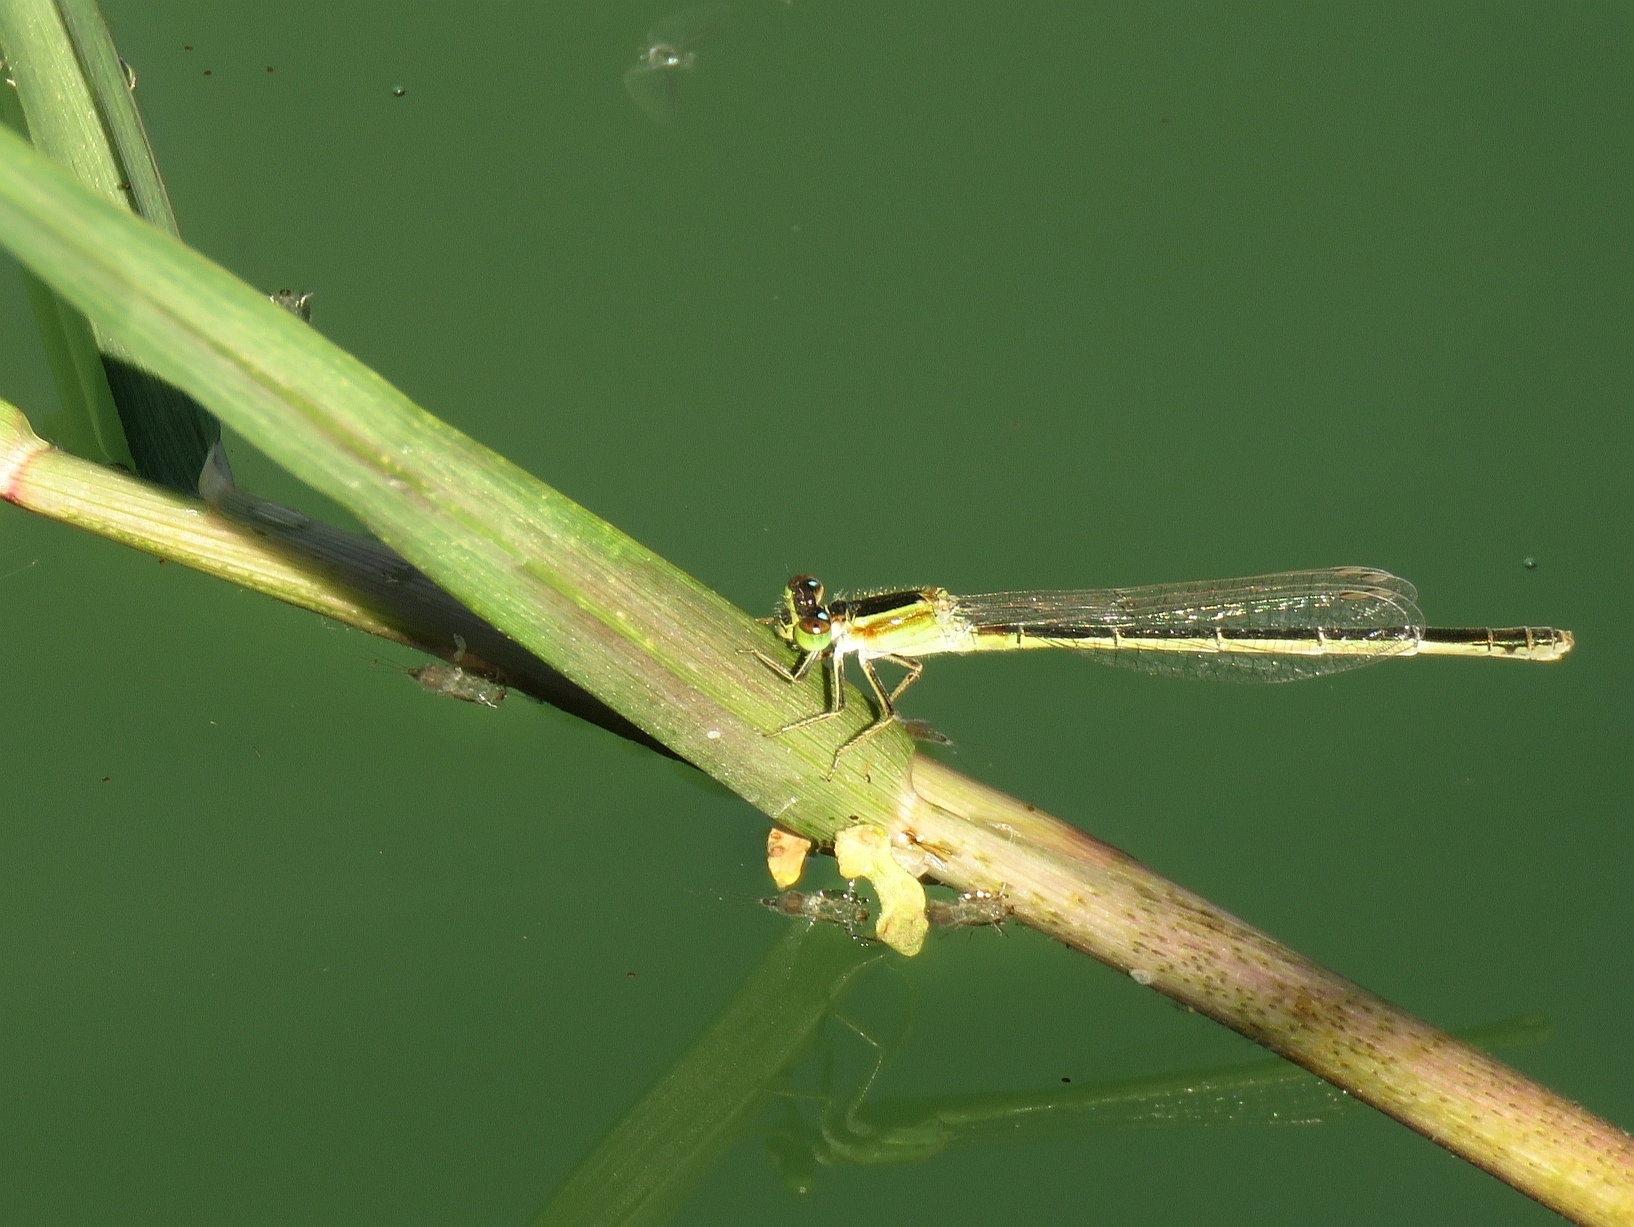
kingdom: Animalia
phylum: Arthropoda
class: Insecta
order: Odonata
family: Coenagrionidae
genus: Ischnura
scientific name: Ischnura senegalensis
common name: Tropical bluetail
